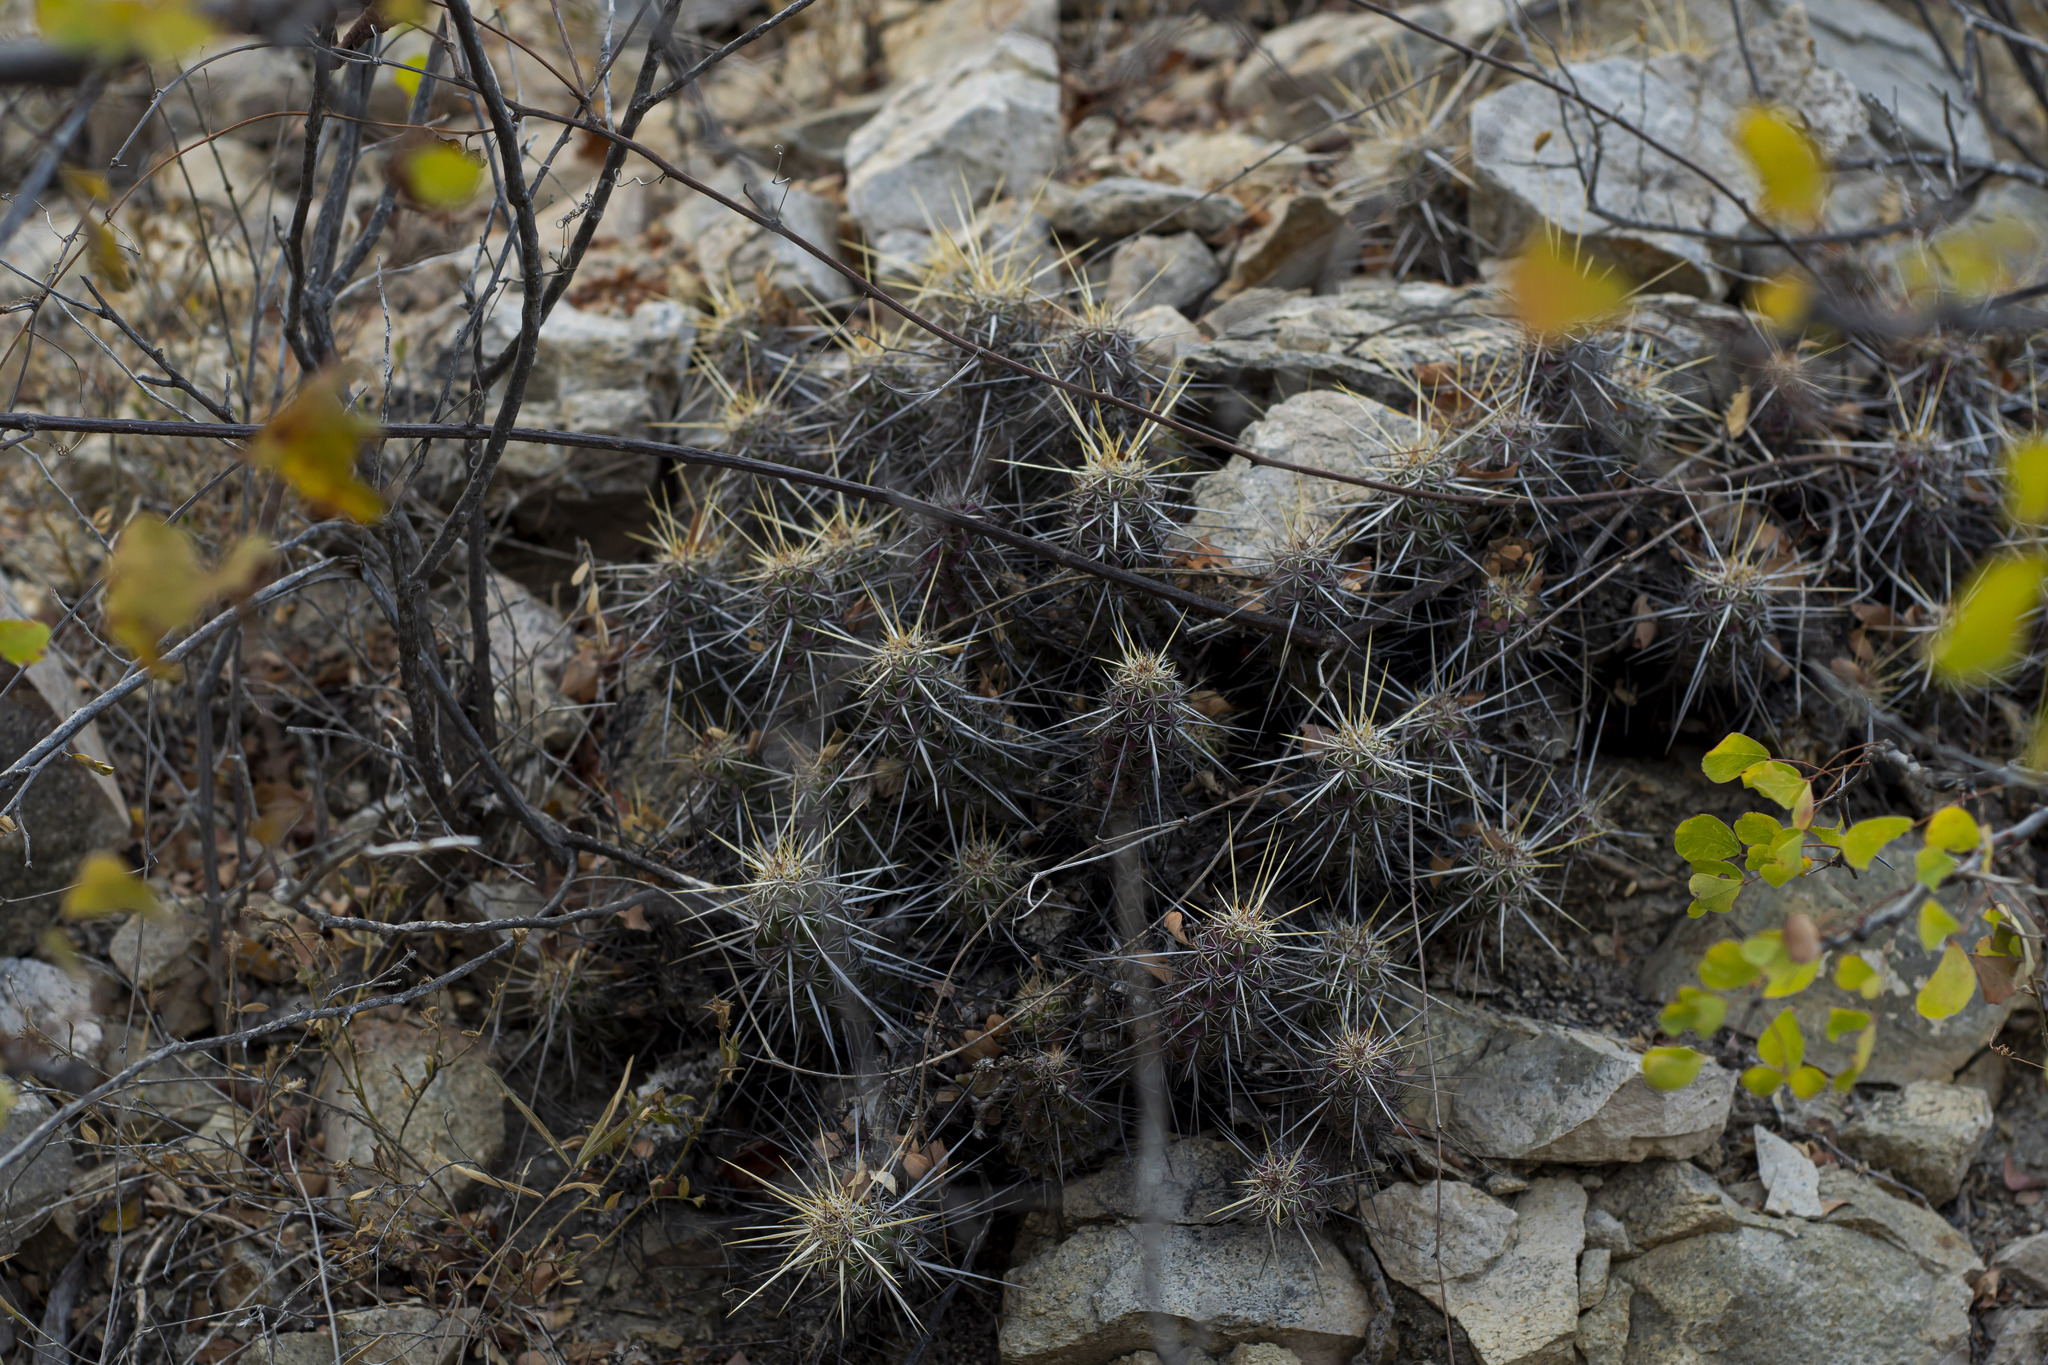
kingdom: Plantae
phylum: Tracheophyta
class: Magnoliopsida
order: Caryophyllales
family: Cactaceae
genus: Echinocereus
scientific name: Echinocereus brandegeei
